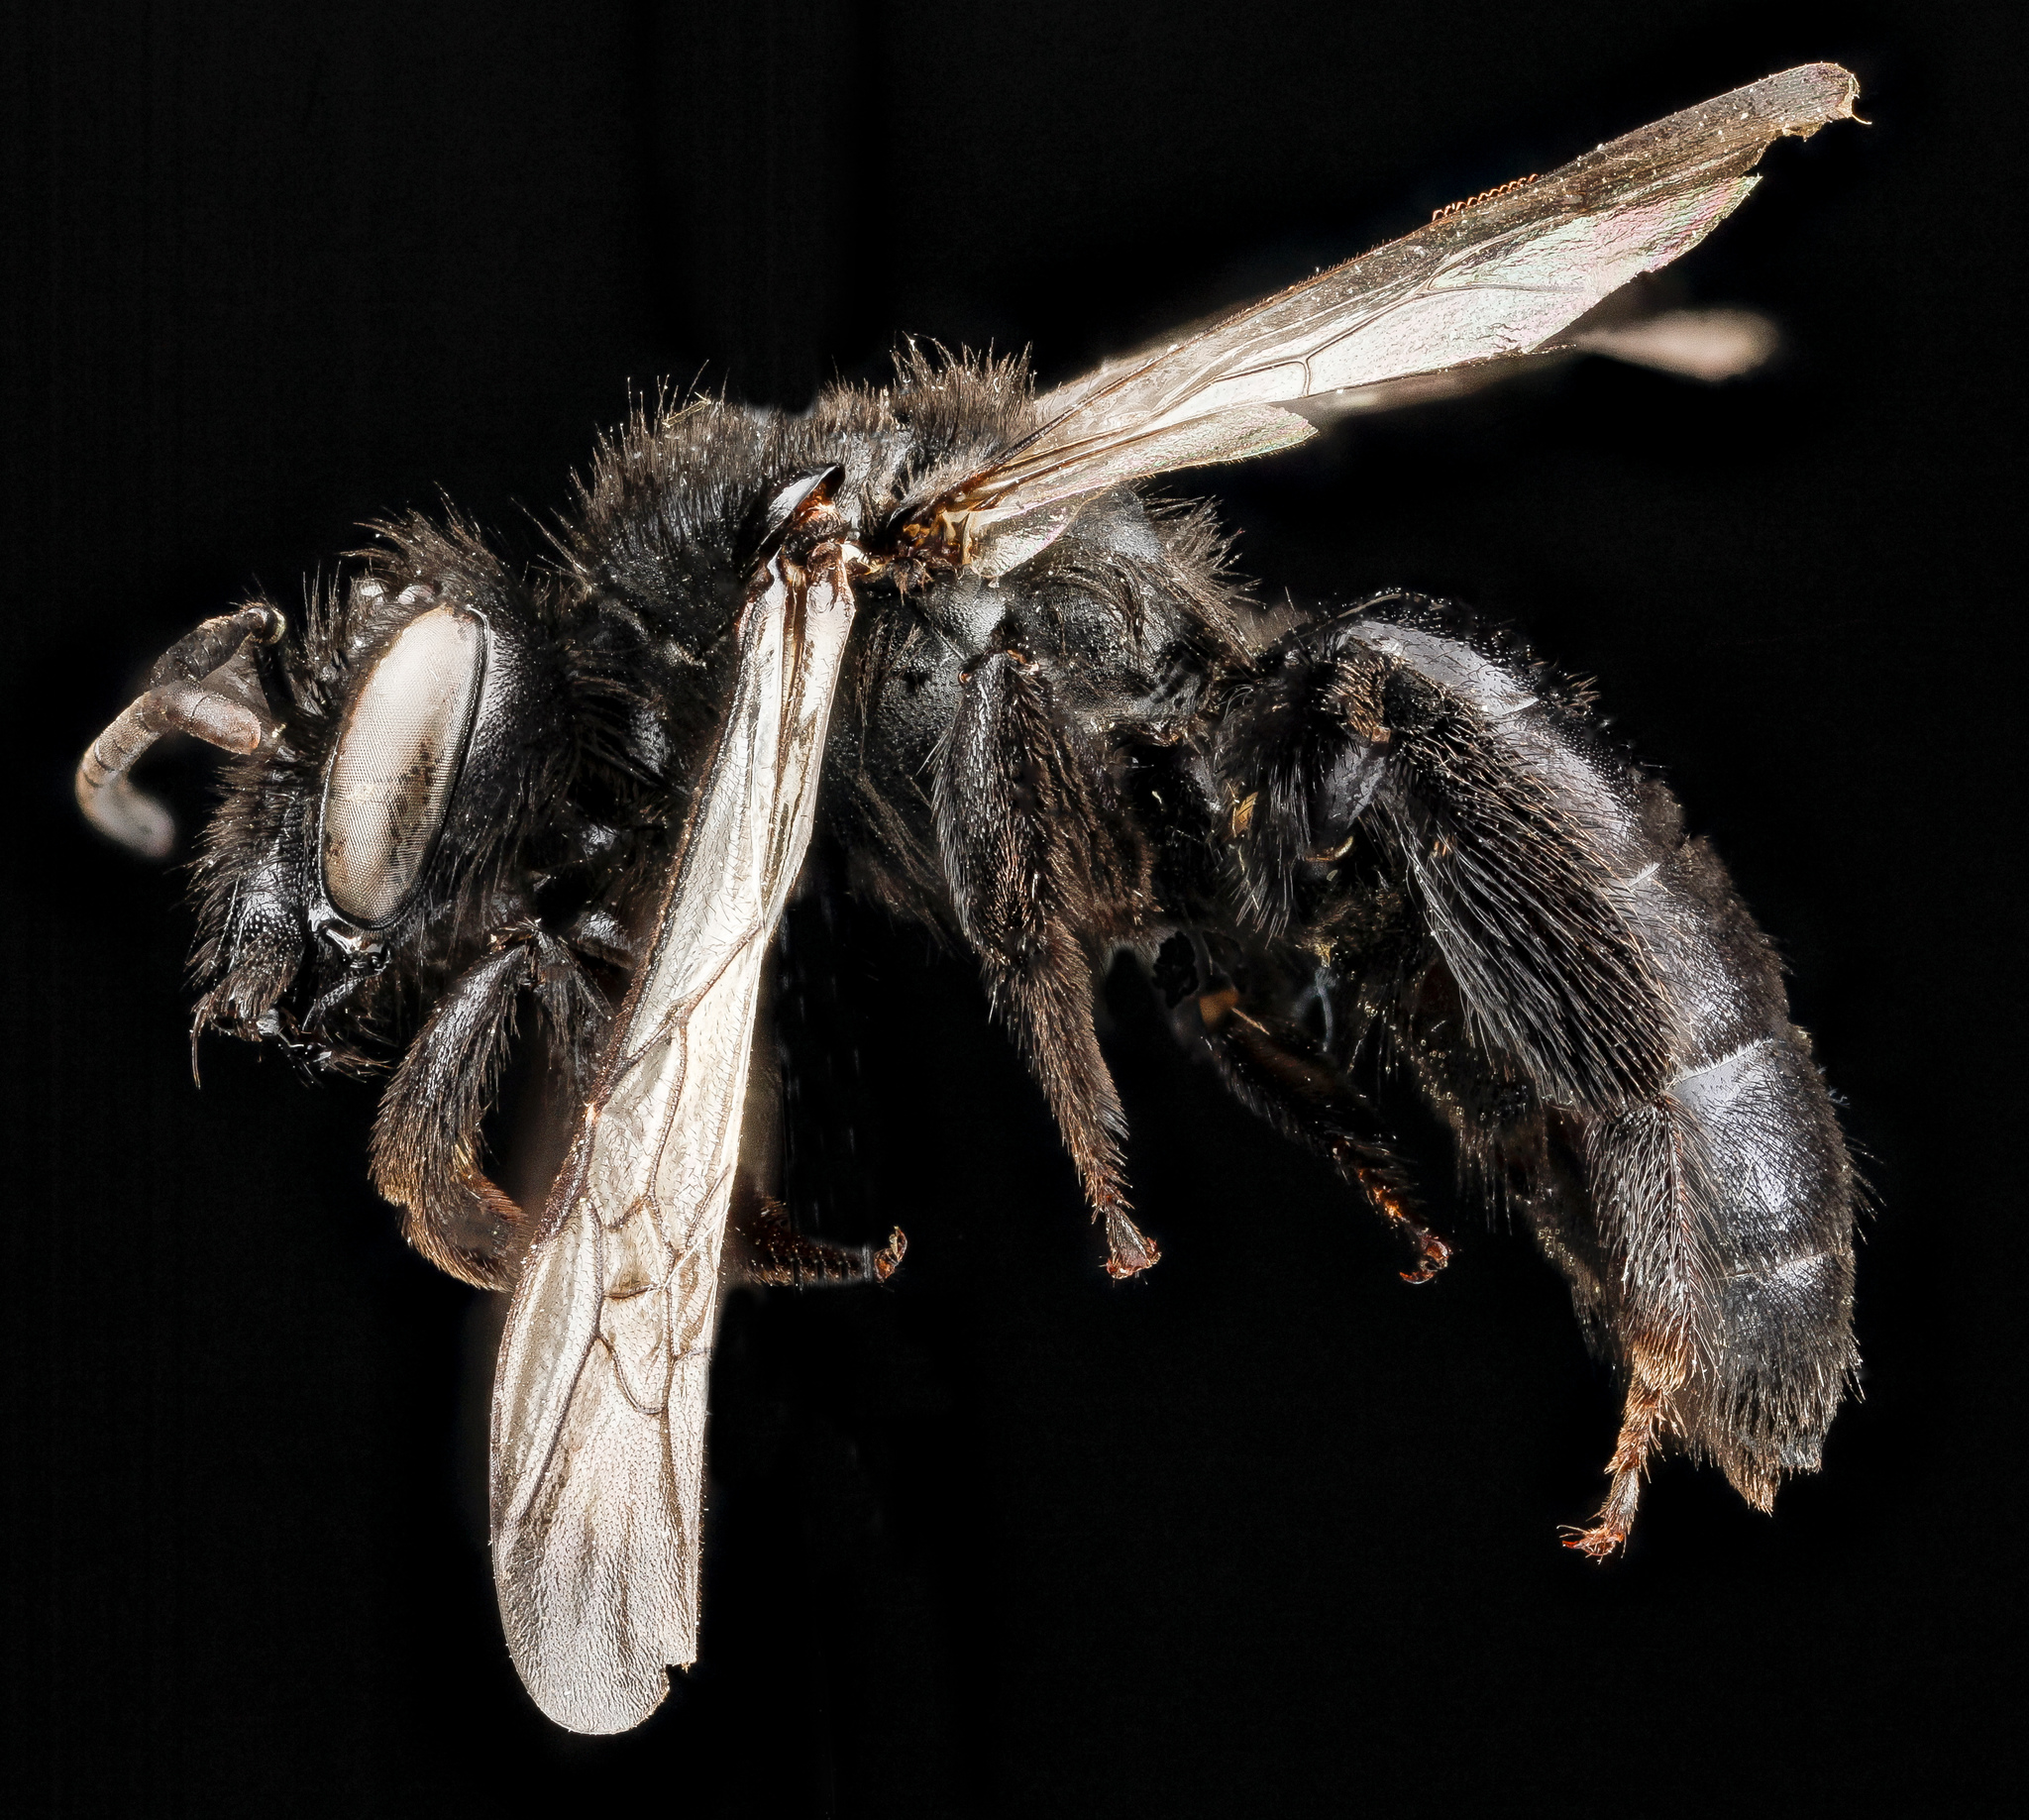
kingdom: Animalia
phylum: Arthropoda
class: Insecta
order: Hymenoptera
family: Andrenidae
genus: Andrena
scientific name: Andrena nigerrima
